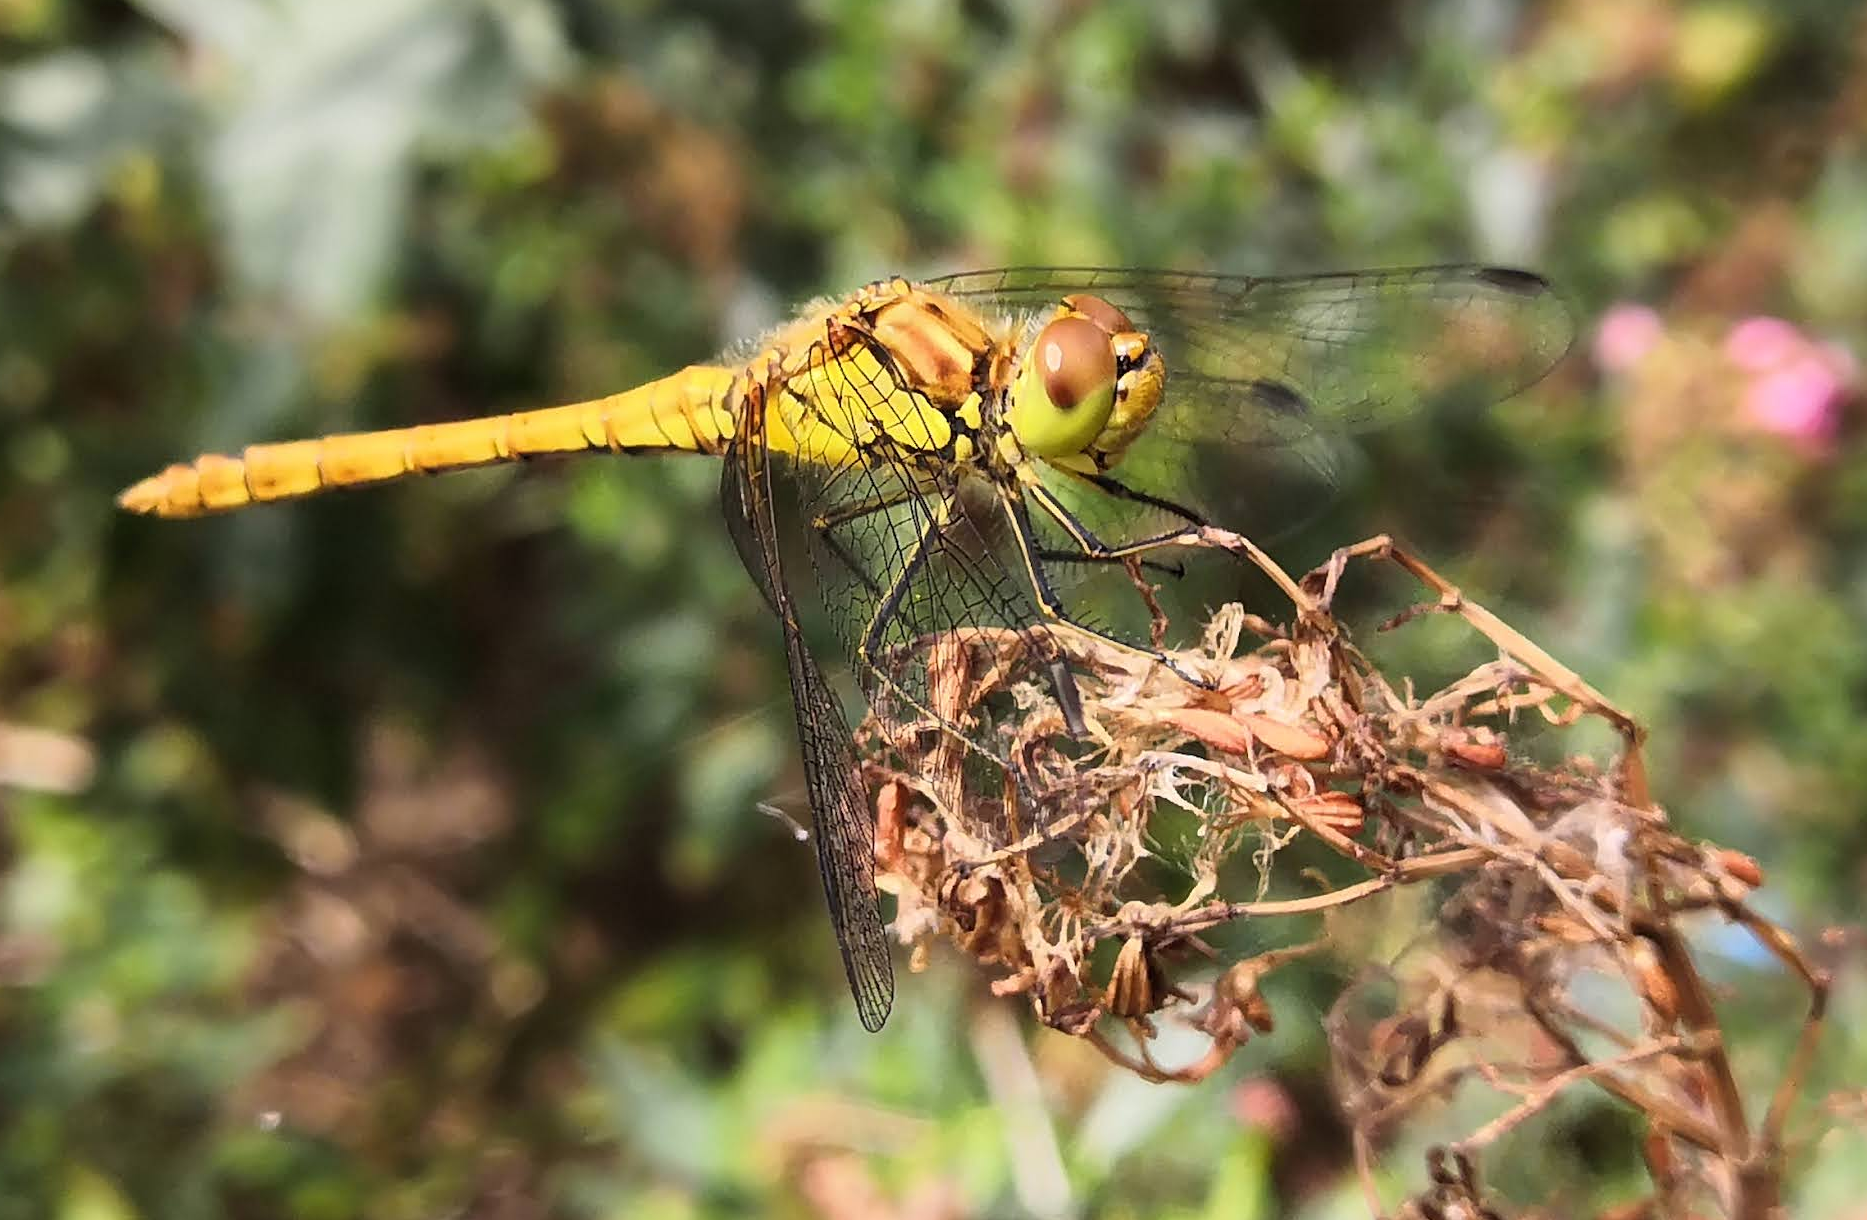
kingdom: Animalia
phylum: Arthropoda
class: Insecta
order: Odonata
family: Libellulidae
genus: Sympetrum
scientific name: Sympetrum striolatum
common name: Common darter
